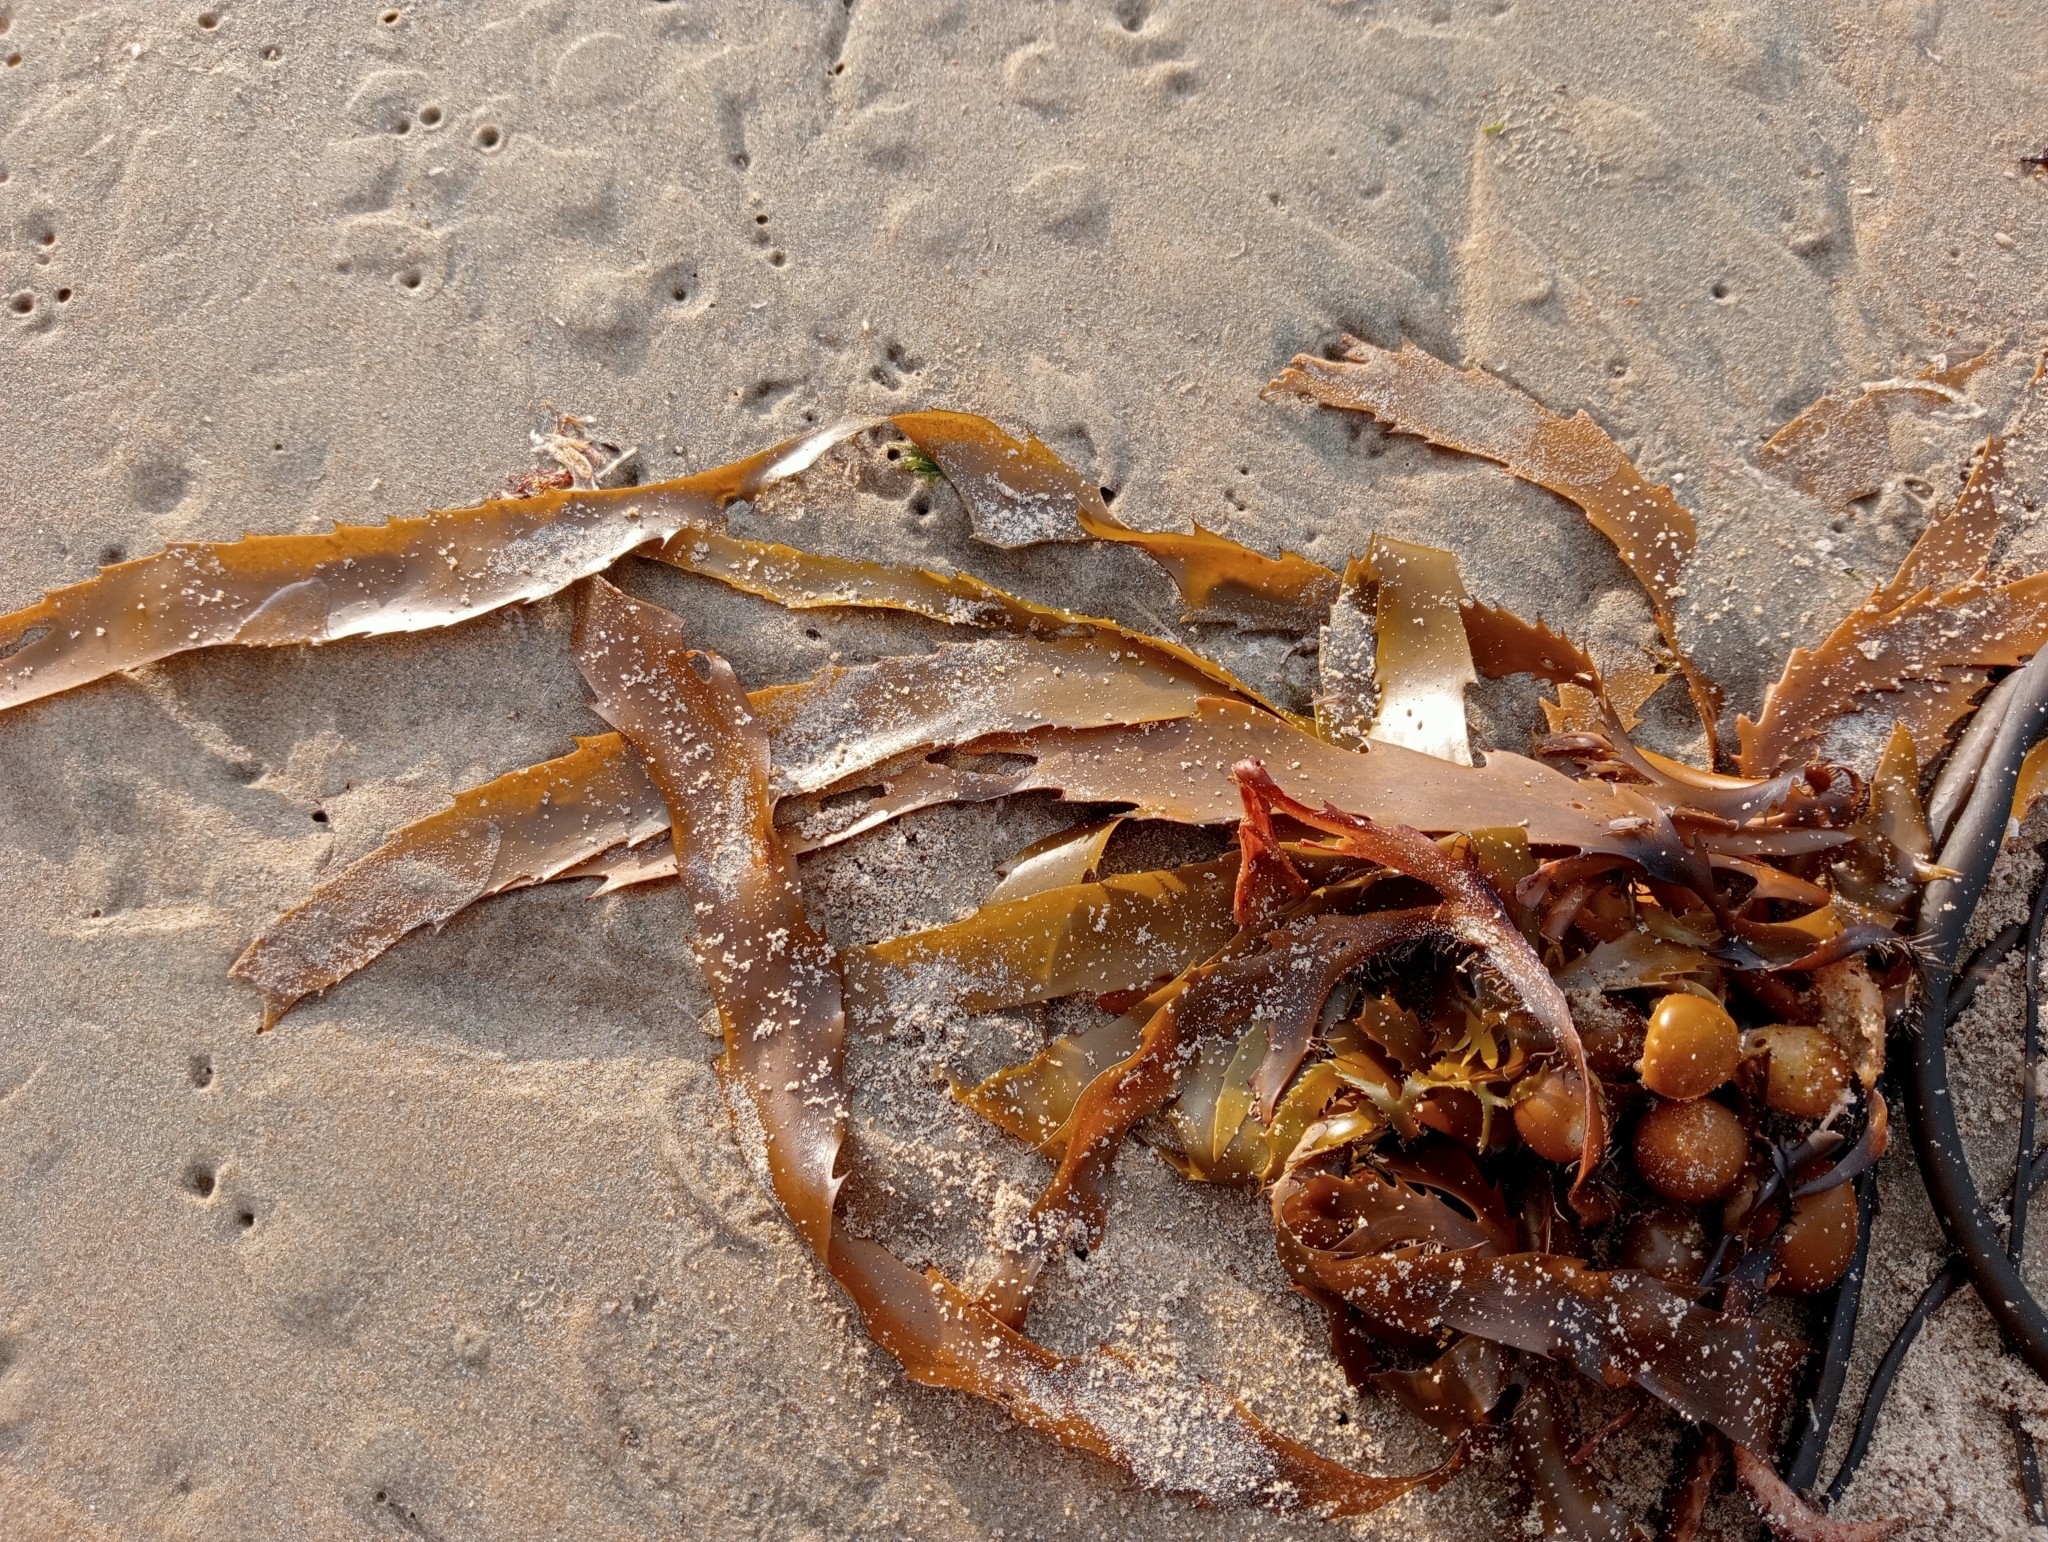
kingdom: Chromista
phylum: Ochrophyta
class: Phaeophyceae
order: Fucales
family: Seirococcaceae
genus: Marginariella
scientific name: Marginariella urvilliana
